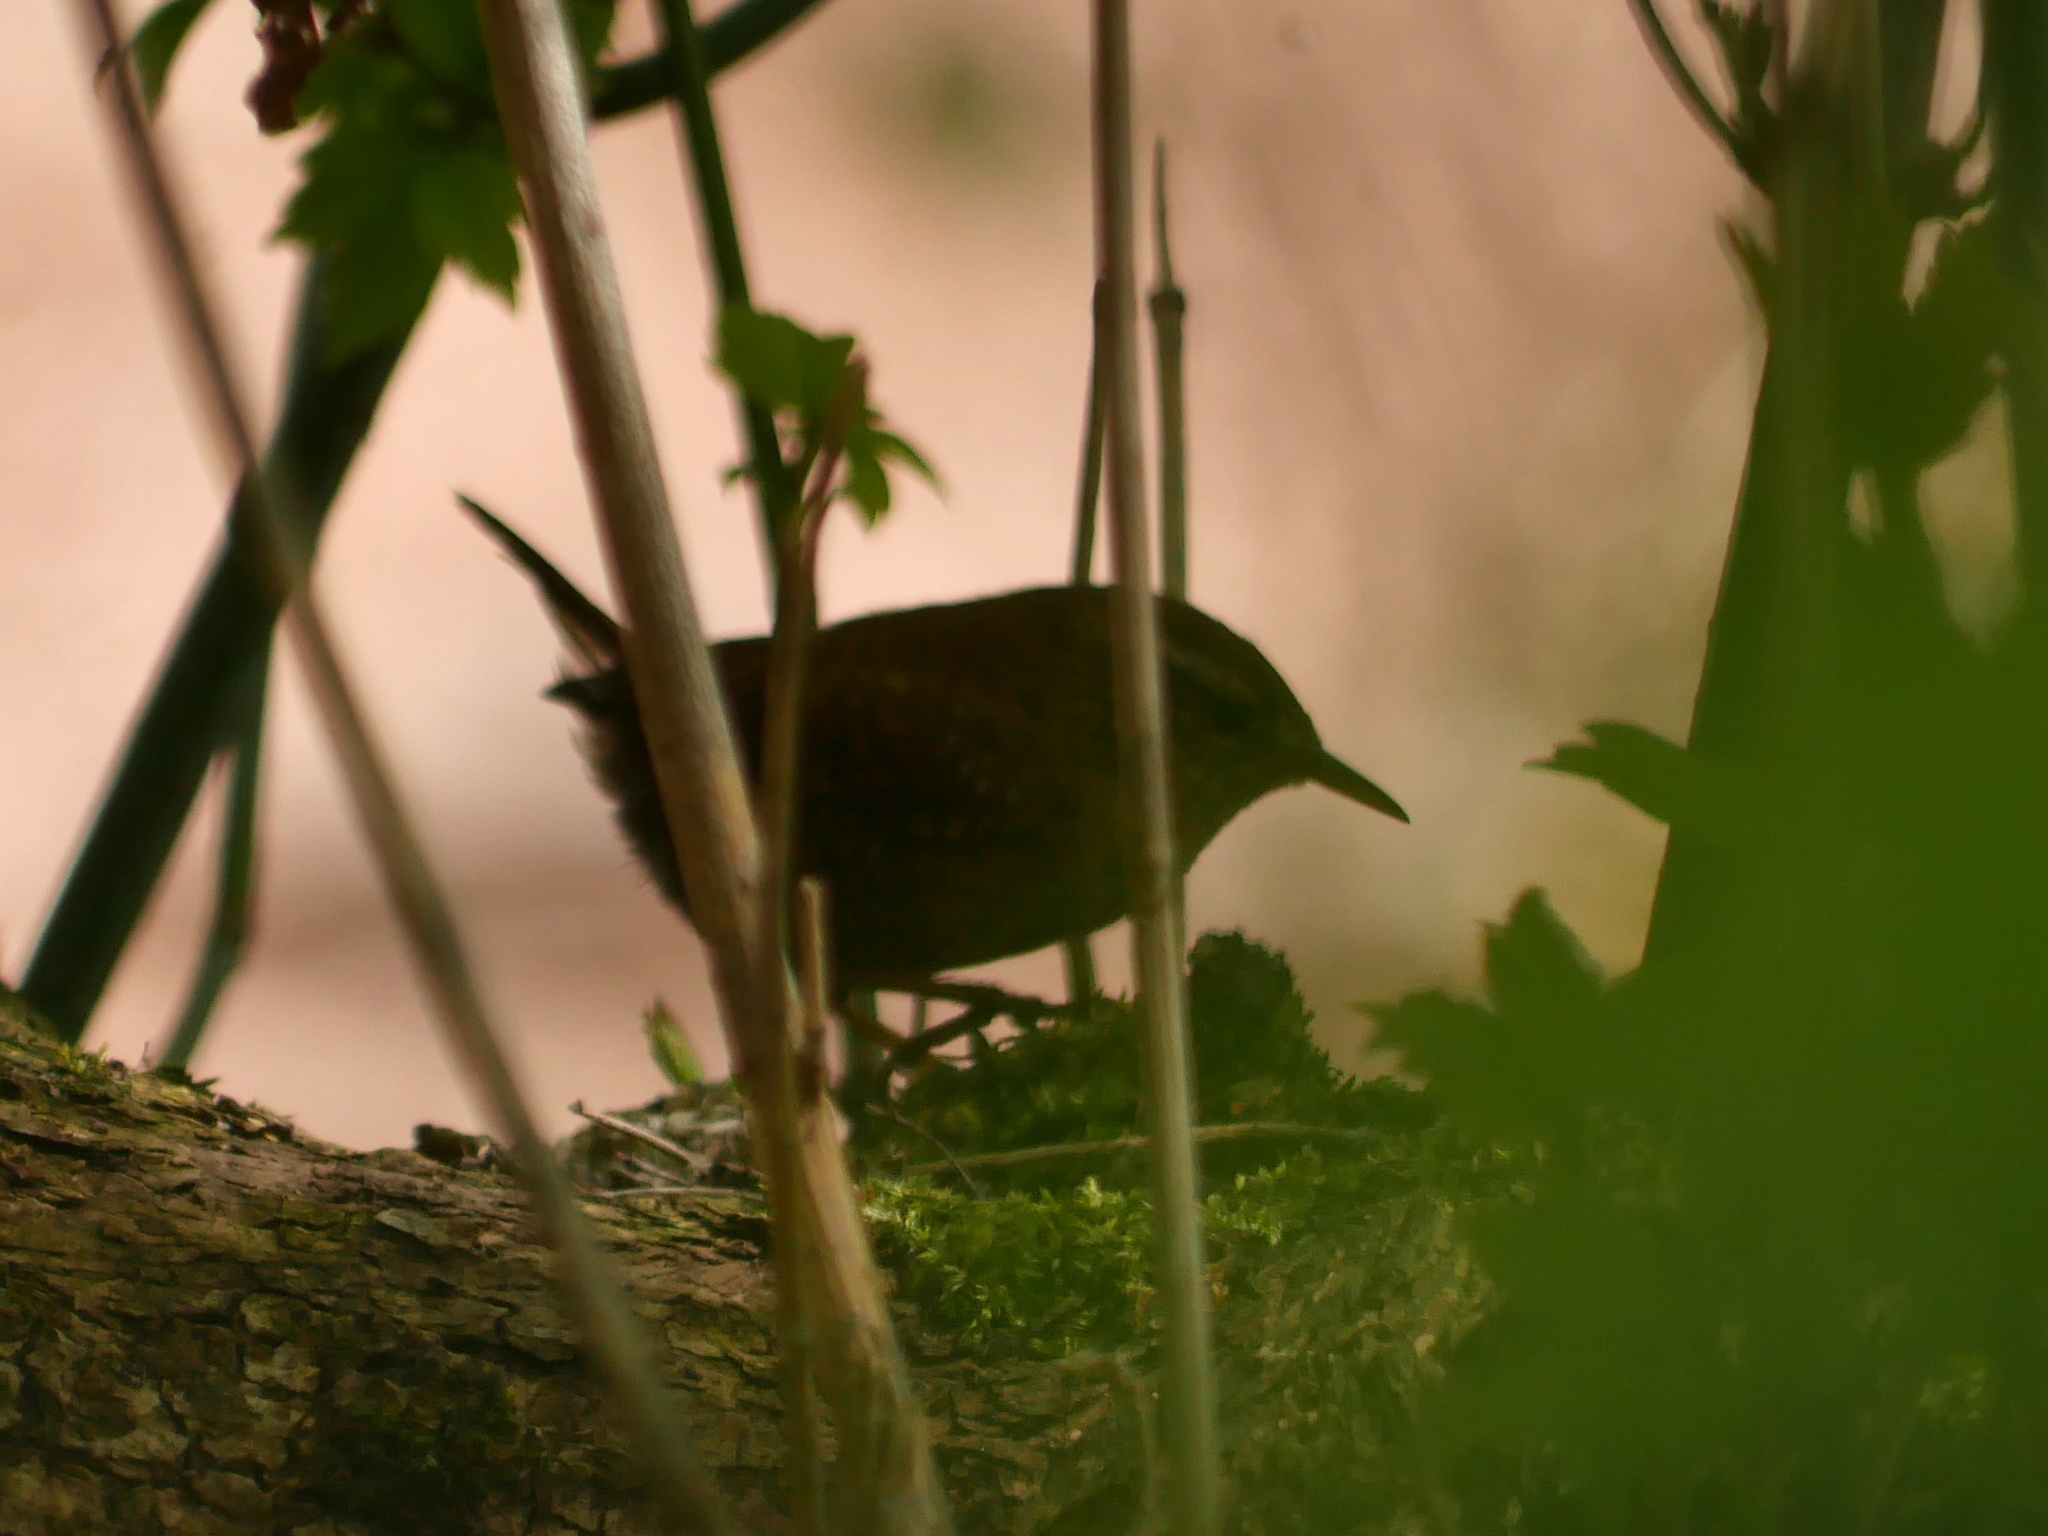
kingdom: Animalia
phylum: Chordata
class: Aves
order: Passeriformes
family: Troglodytidae
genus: Troglodytes
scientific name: Troglodytes troglodytes
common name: Eurasian wren
